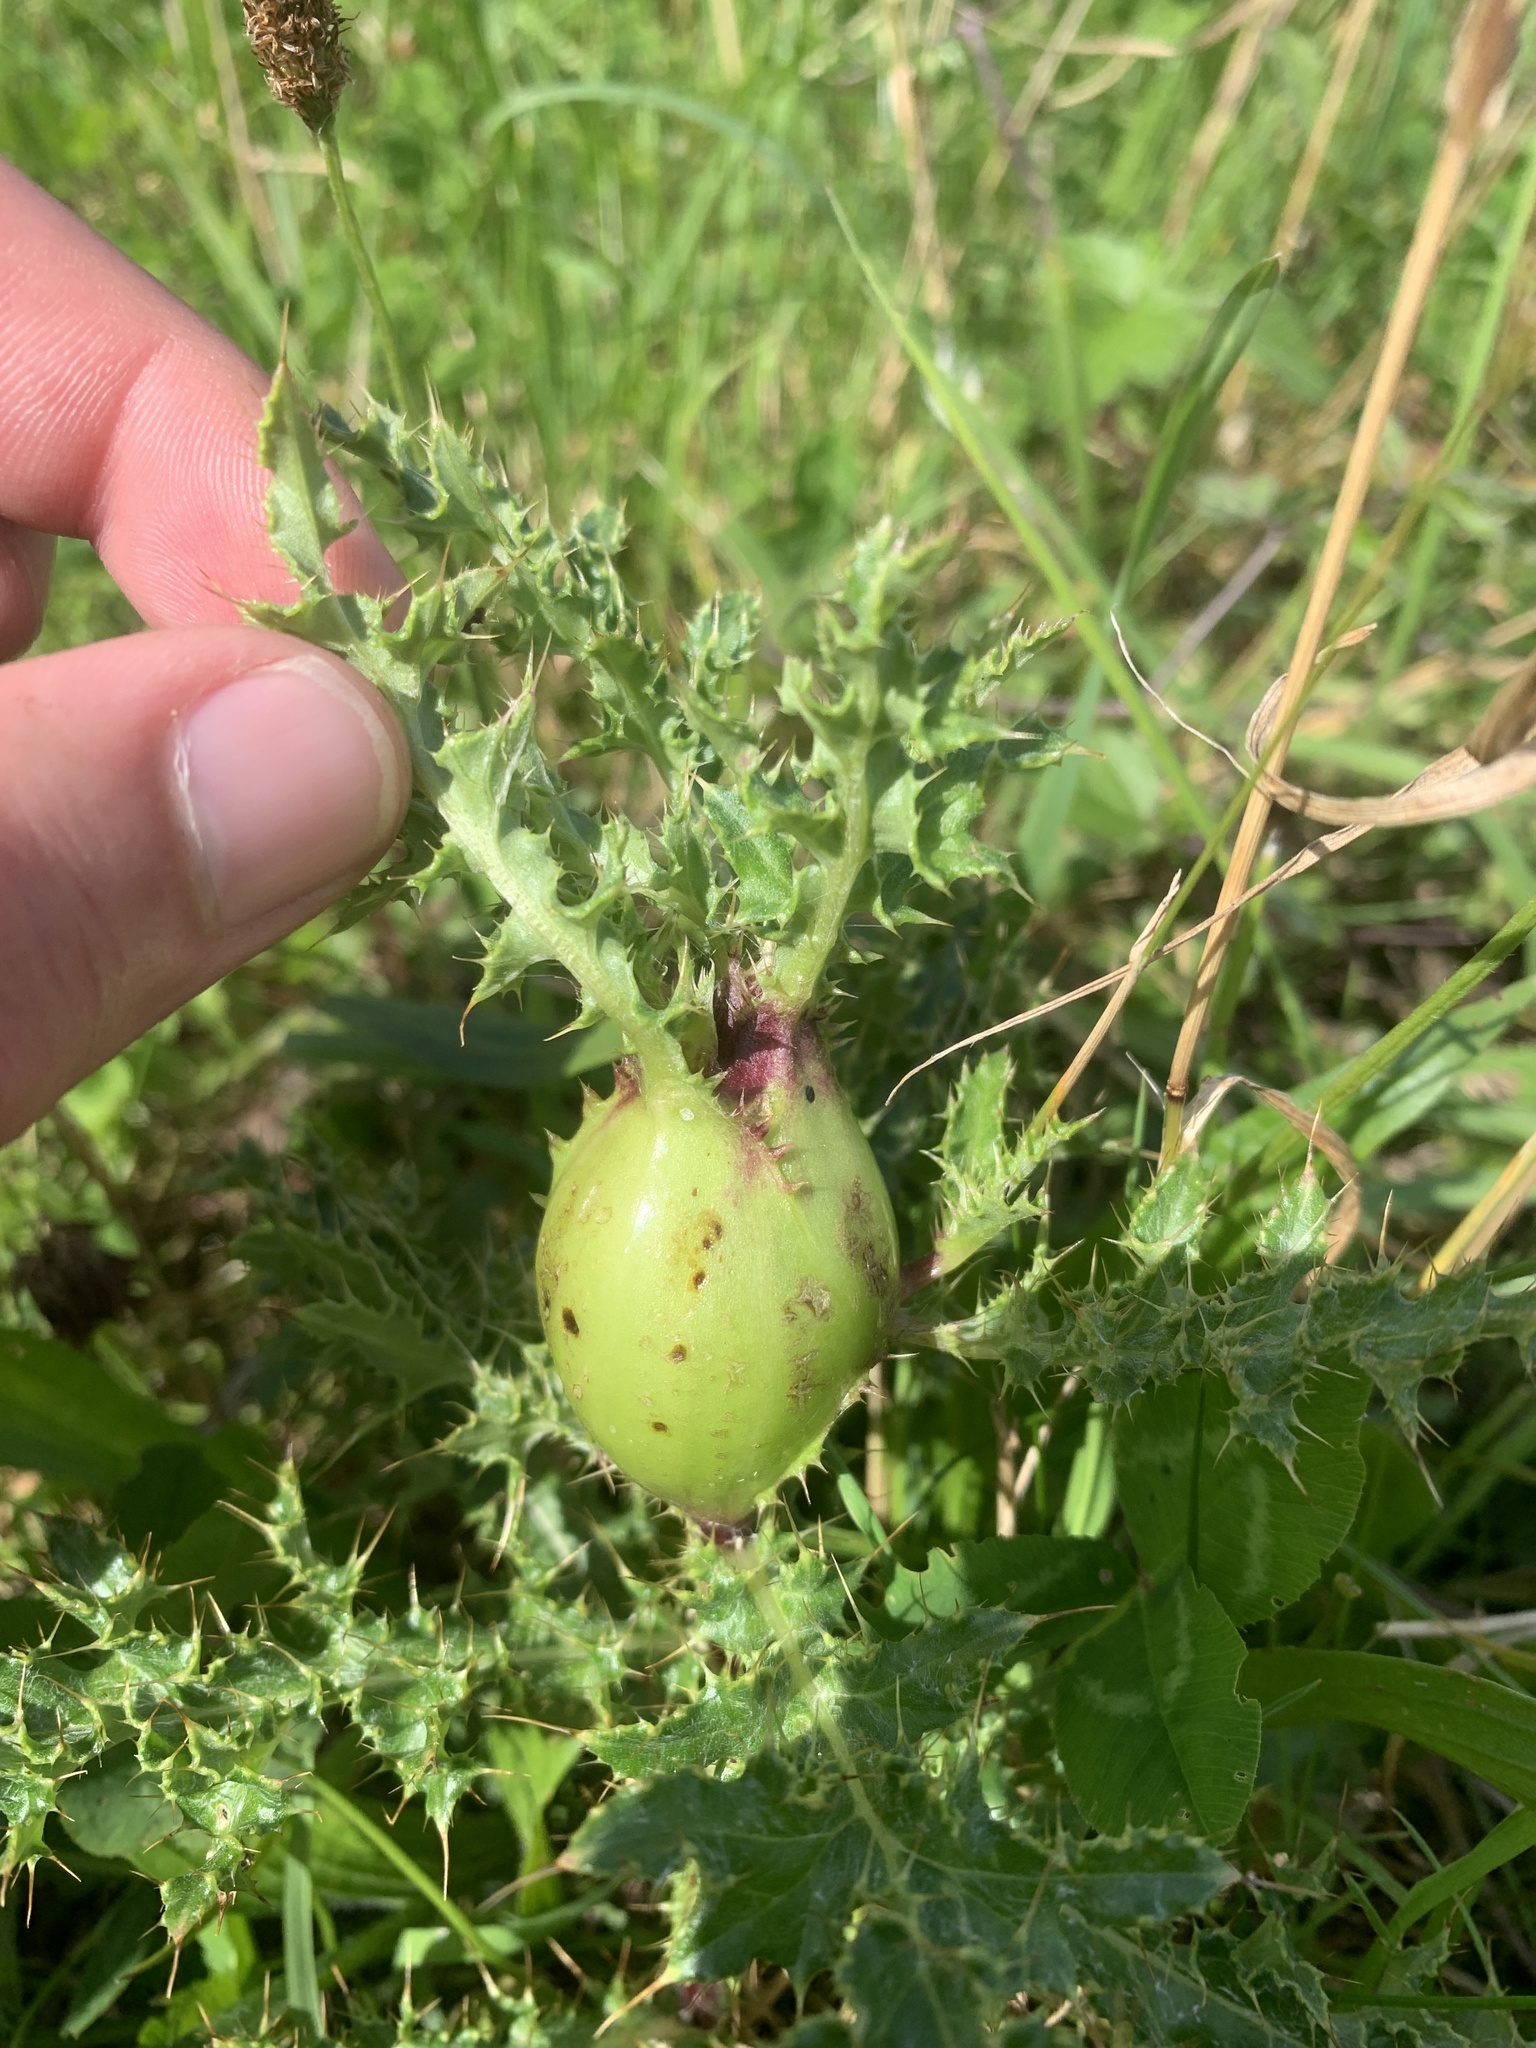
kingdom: Plantae
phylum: Tracheophyta
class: Magnoliopsida
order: Asterales
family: Asteraceae
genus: Cirsium
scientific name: Cirsium arvense
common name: Creeping thistle
